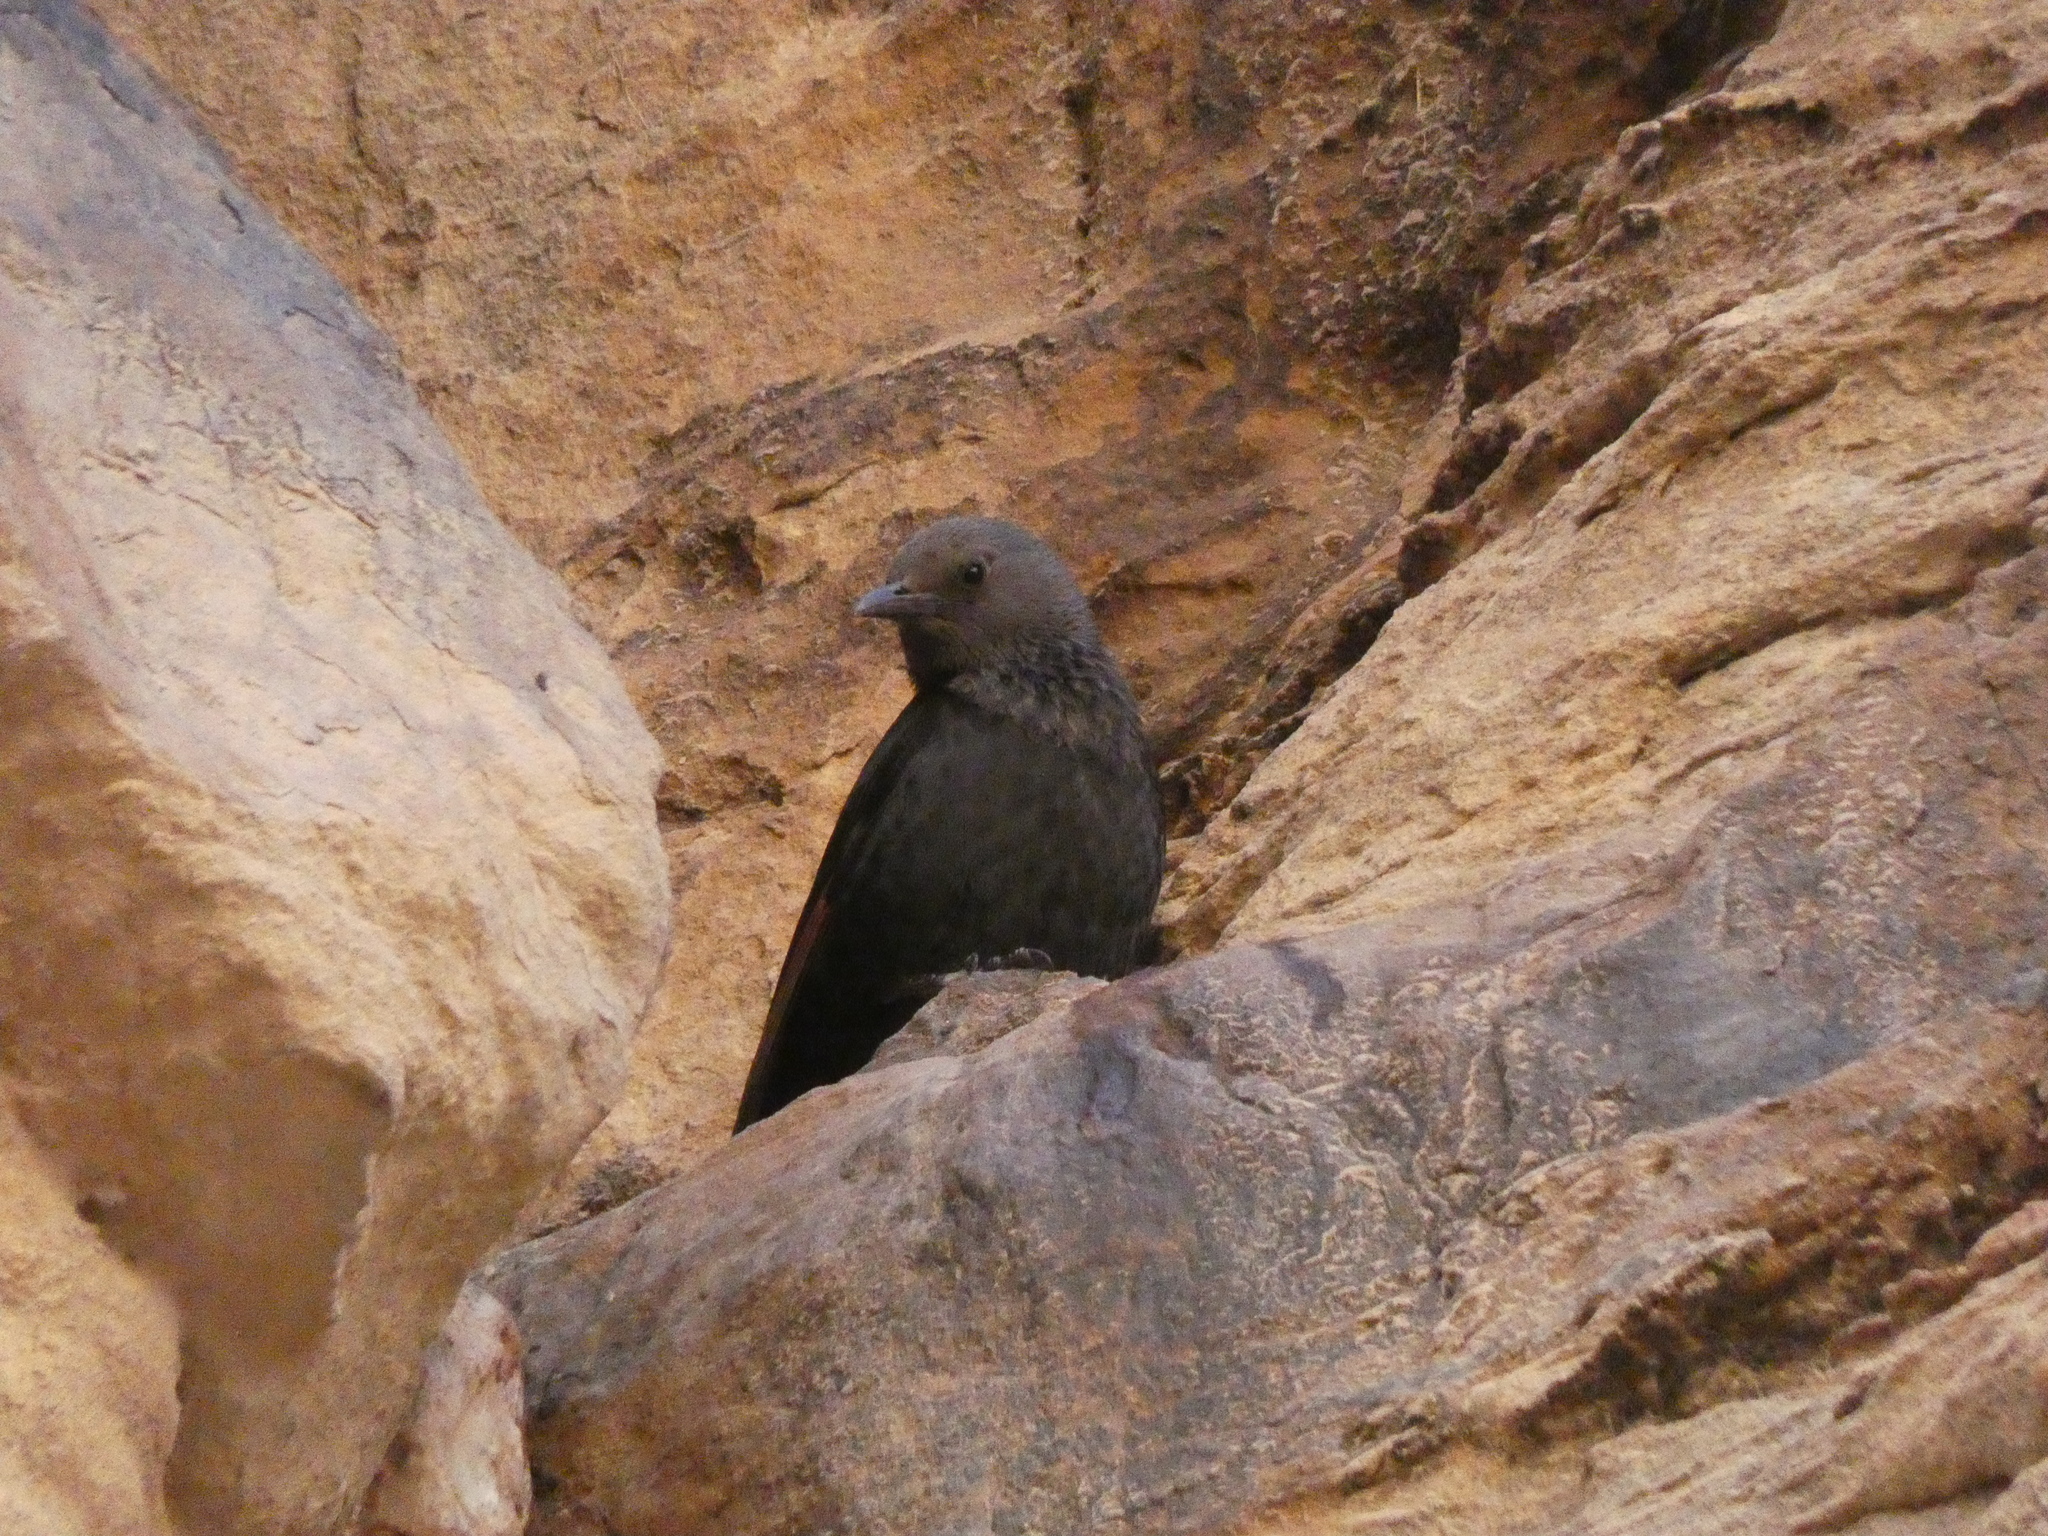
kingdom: Animalia
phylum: Chordata
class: Aves
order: Passeriformes
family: Sturnidae
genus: Onychognathus
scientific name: Onychognathus tristramii
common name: Tristram's starling
